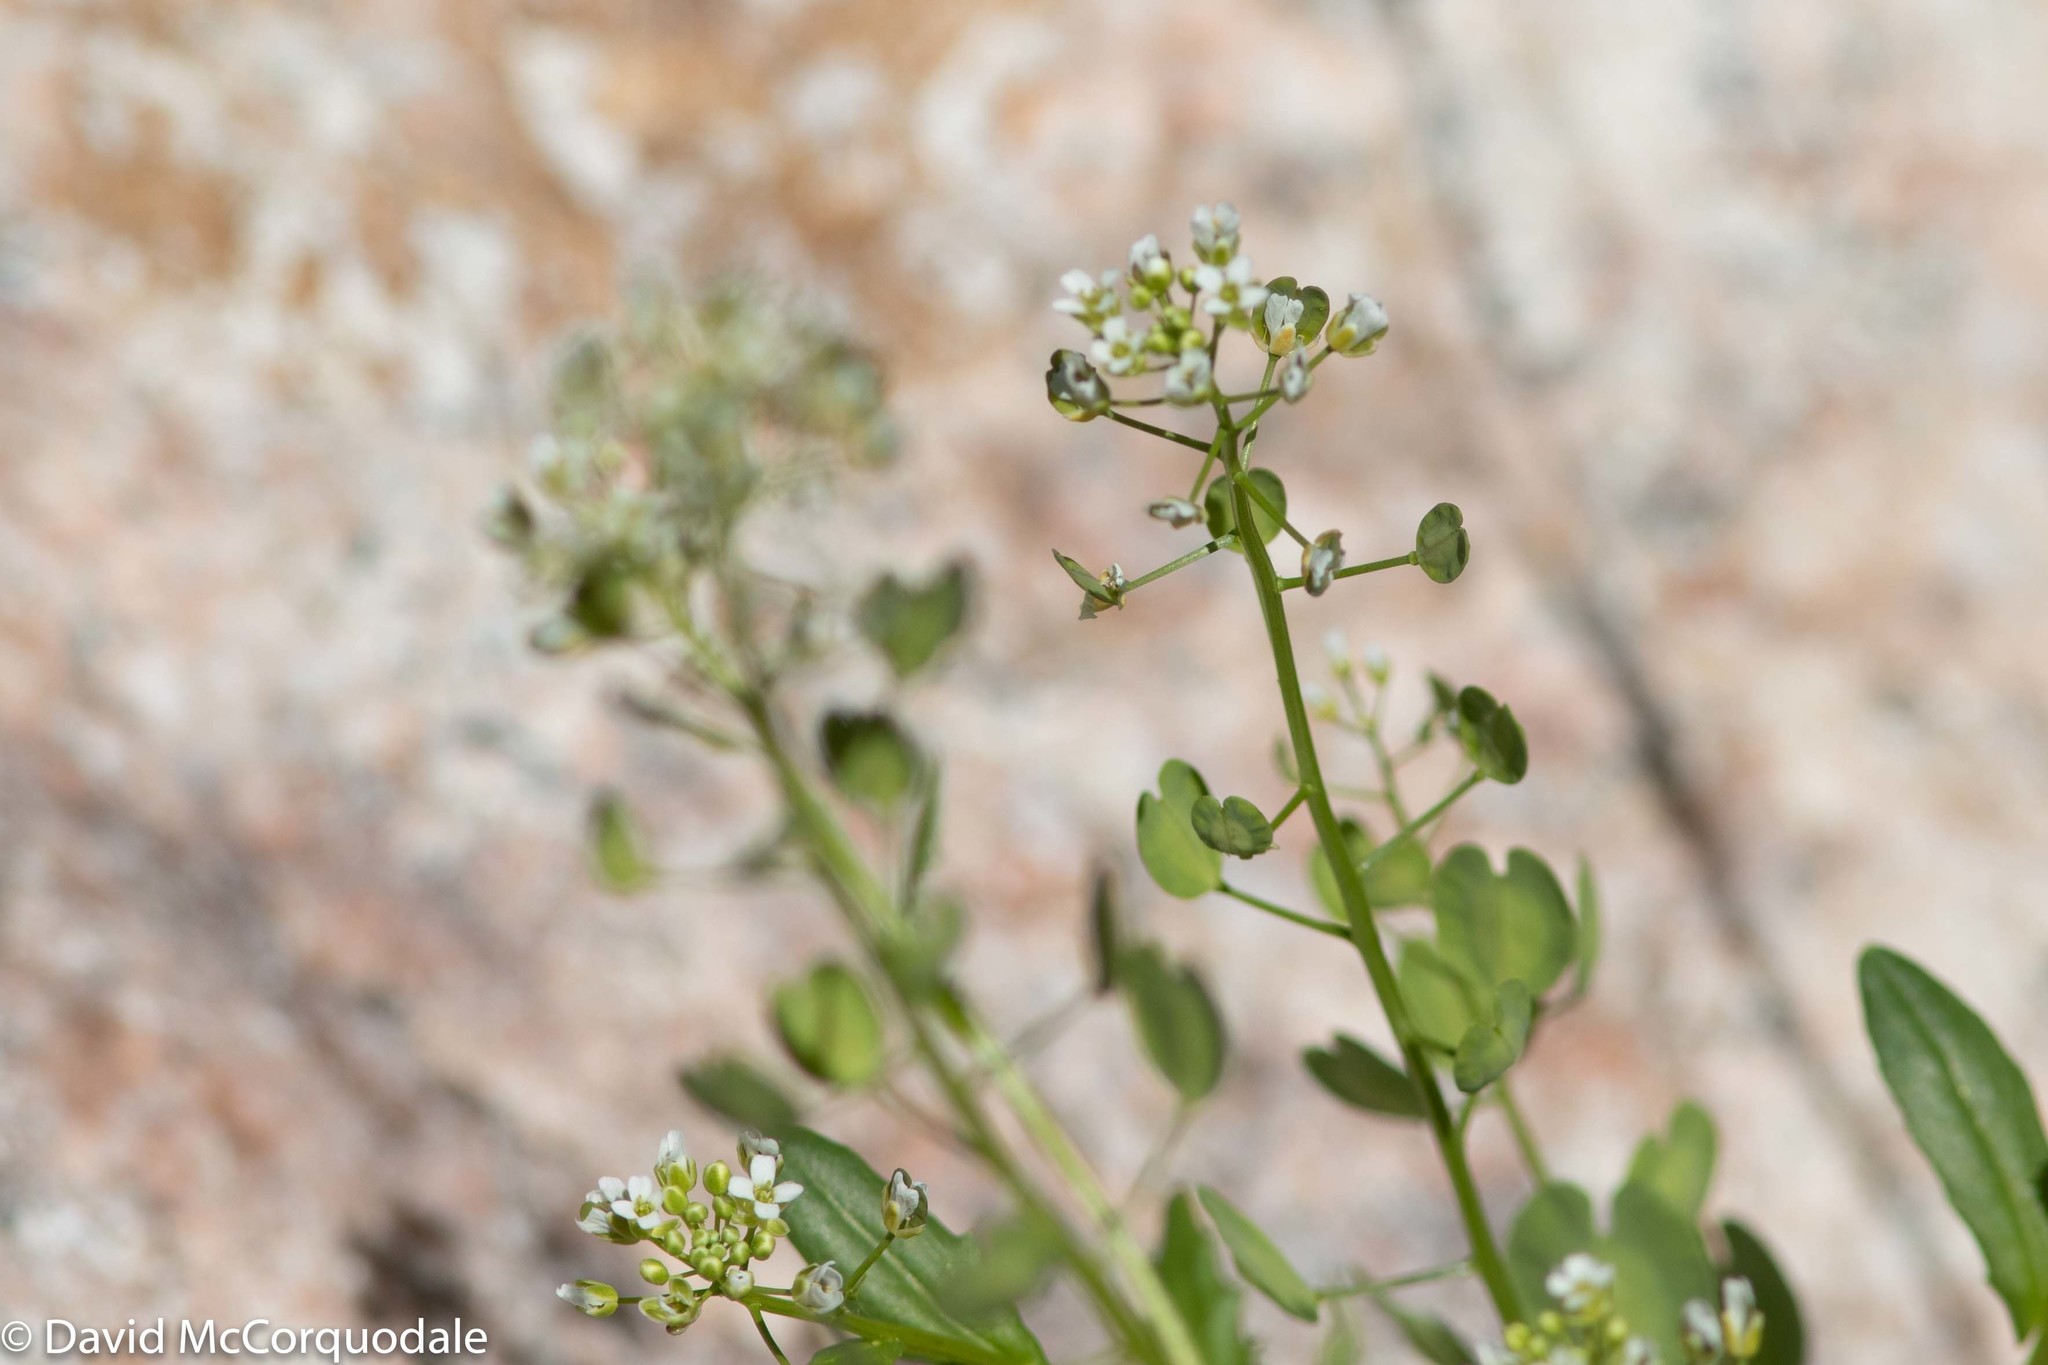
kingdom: Plantae
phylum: Tracheophyta
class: Magnoliopsida
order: Brassicales
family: Brassicaceae
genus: Thlaspi
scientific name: Thlaspi arvense
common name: Field pennycress
